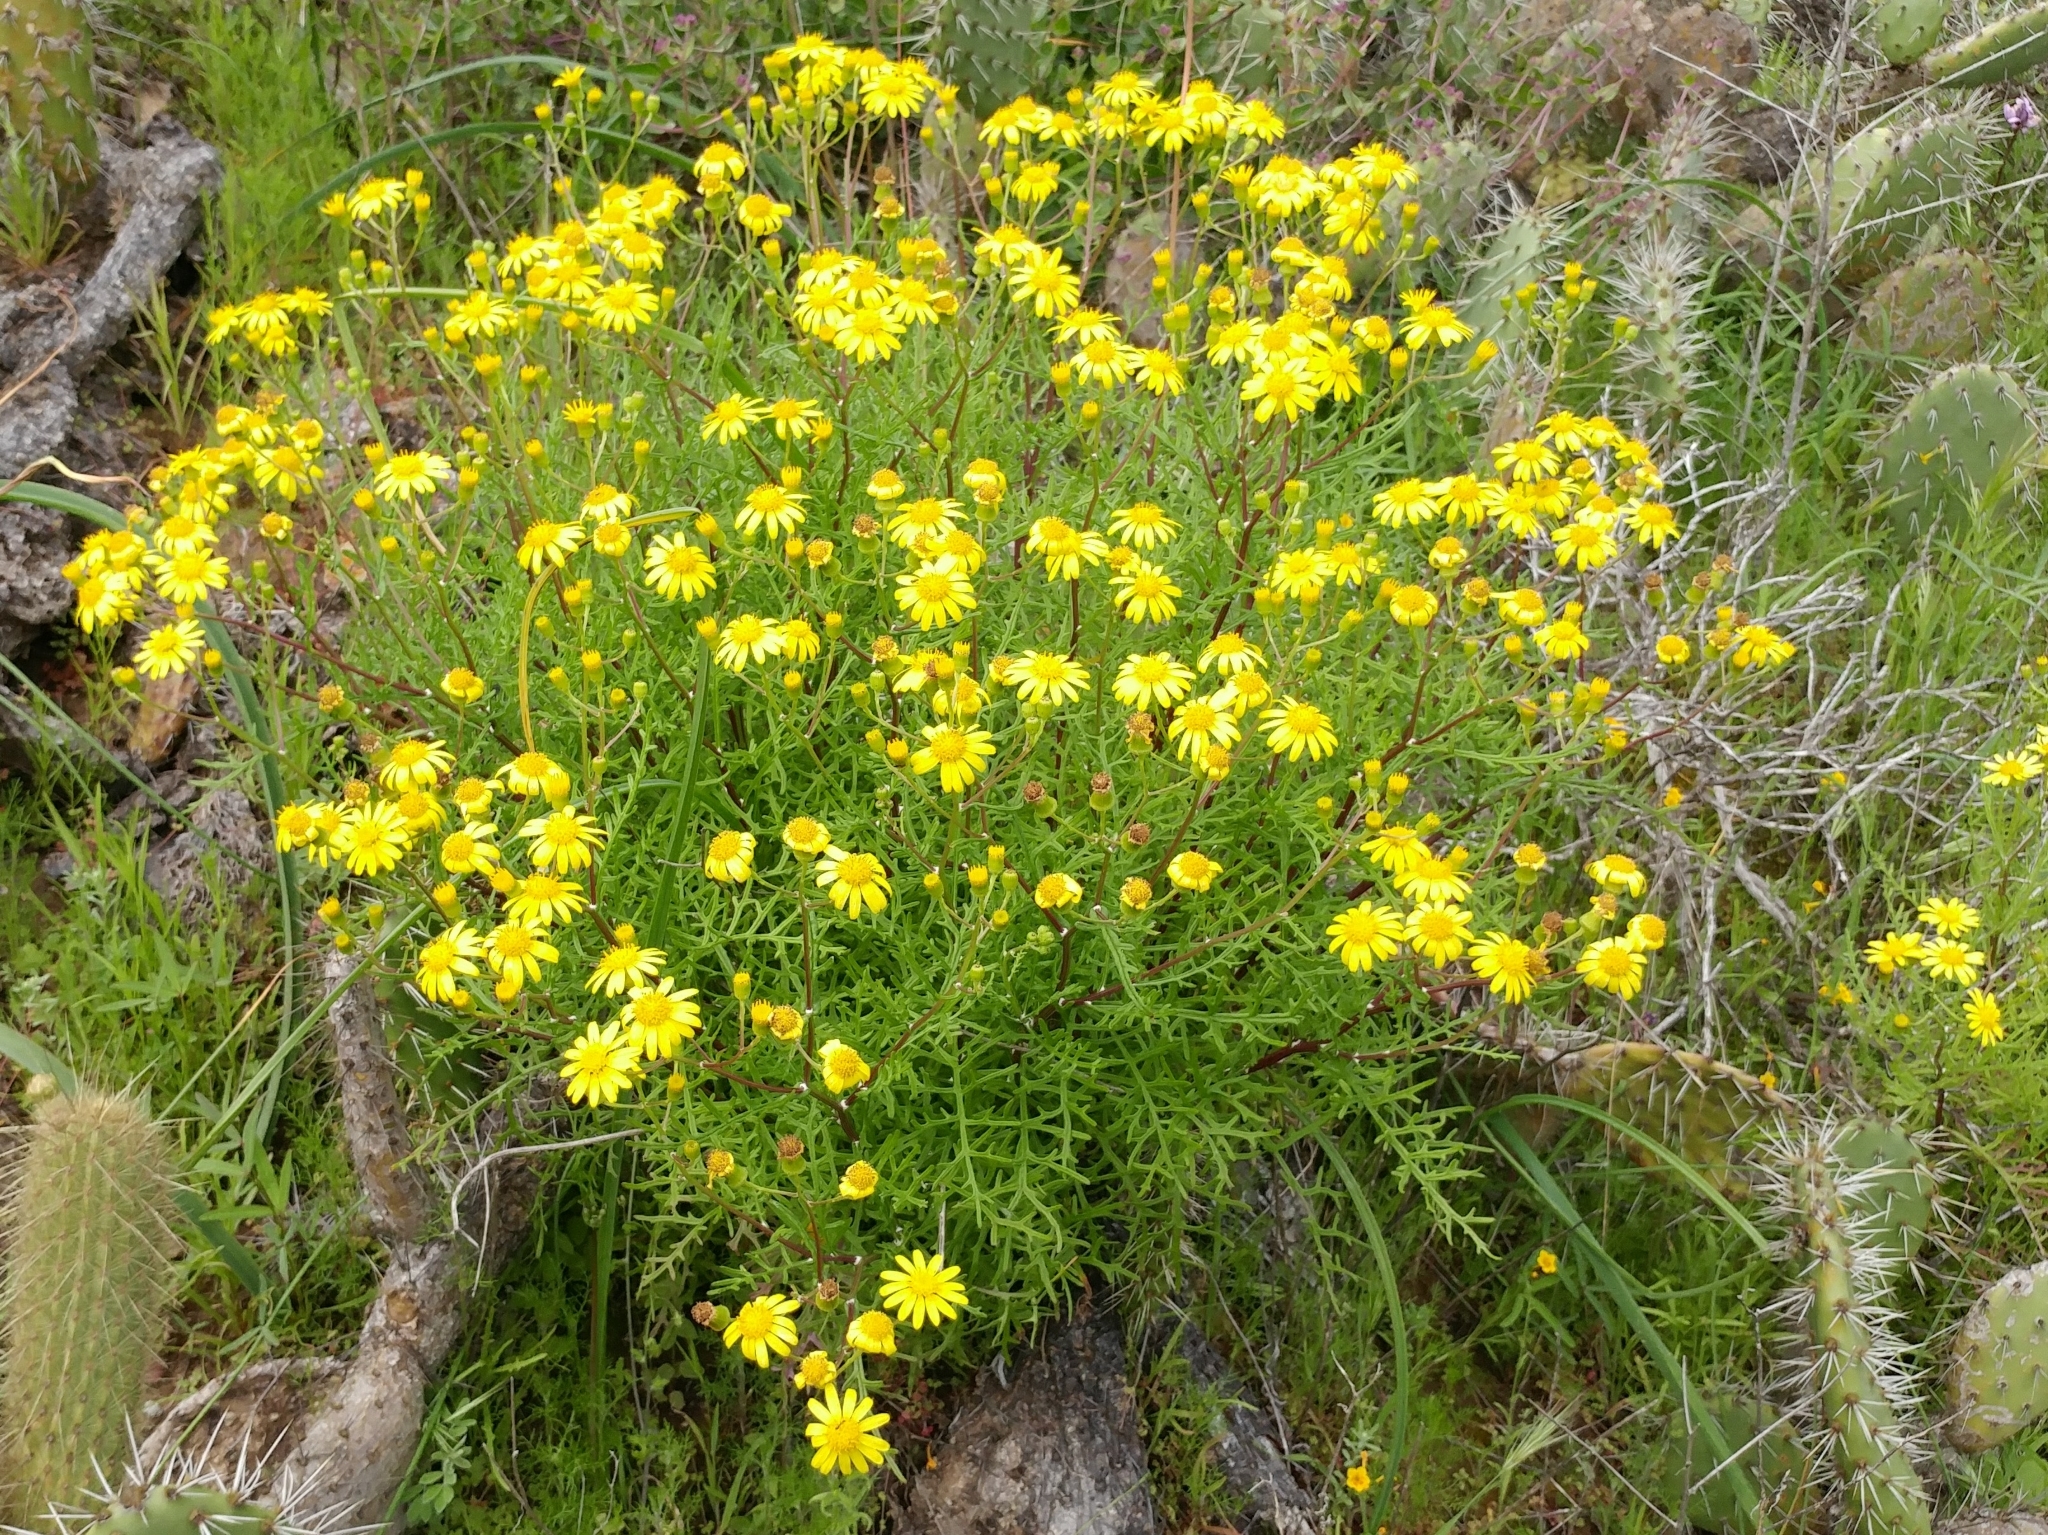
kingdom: Plantae
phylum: Tracheophyta
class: Magnoliopsida
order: Asterales
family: Asteraceae
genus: Senecio
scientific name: Senecio lyonii
